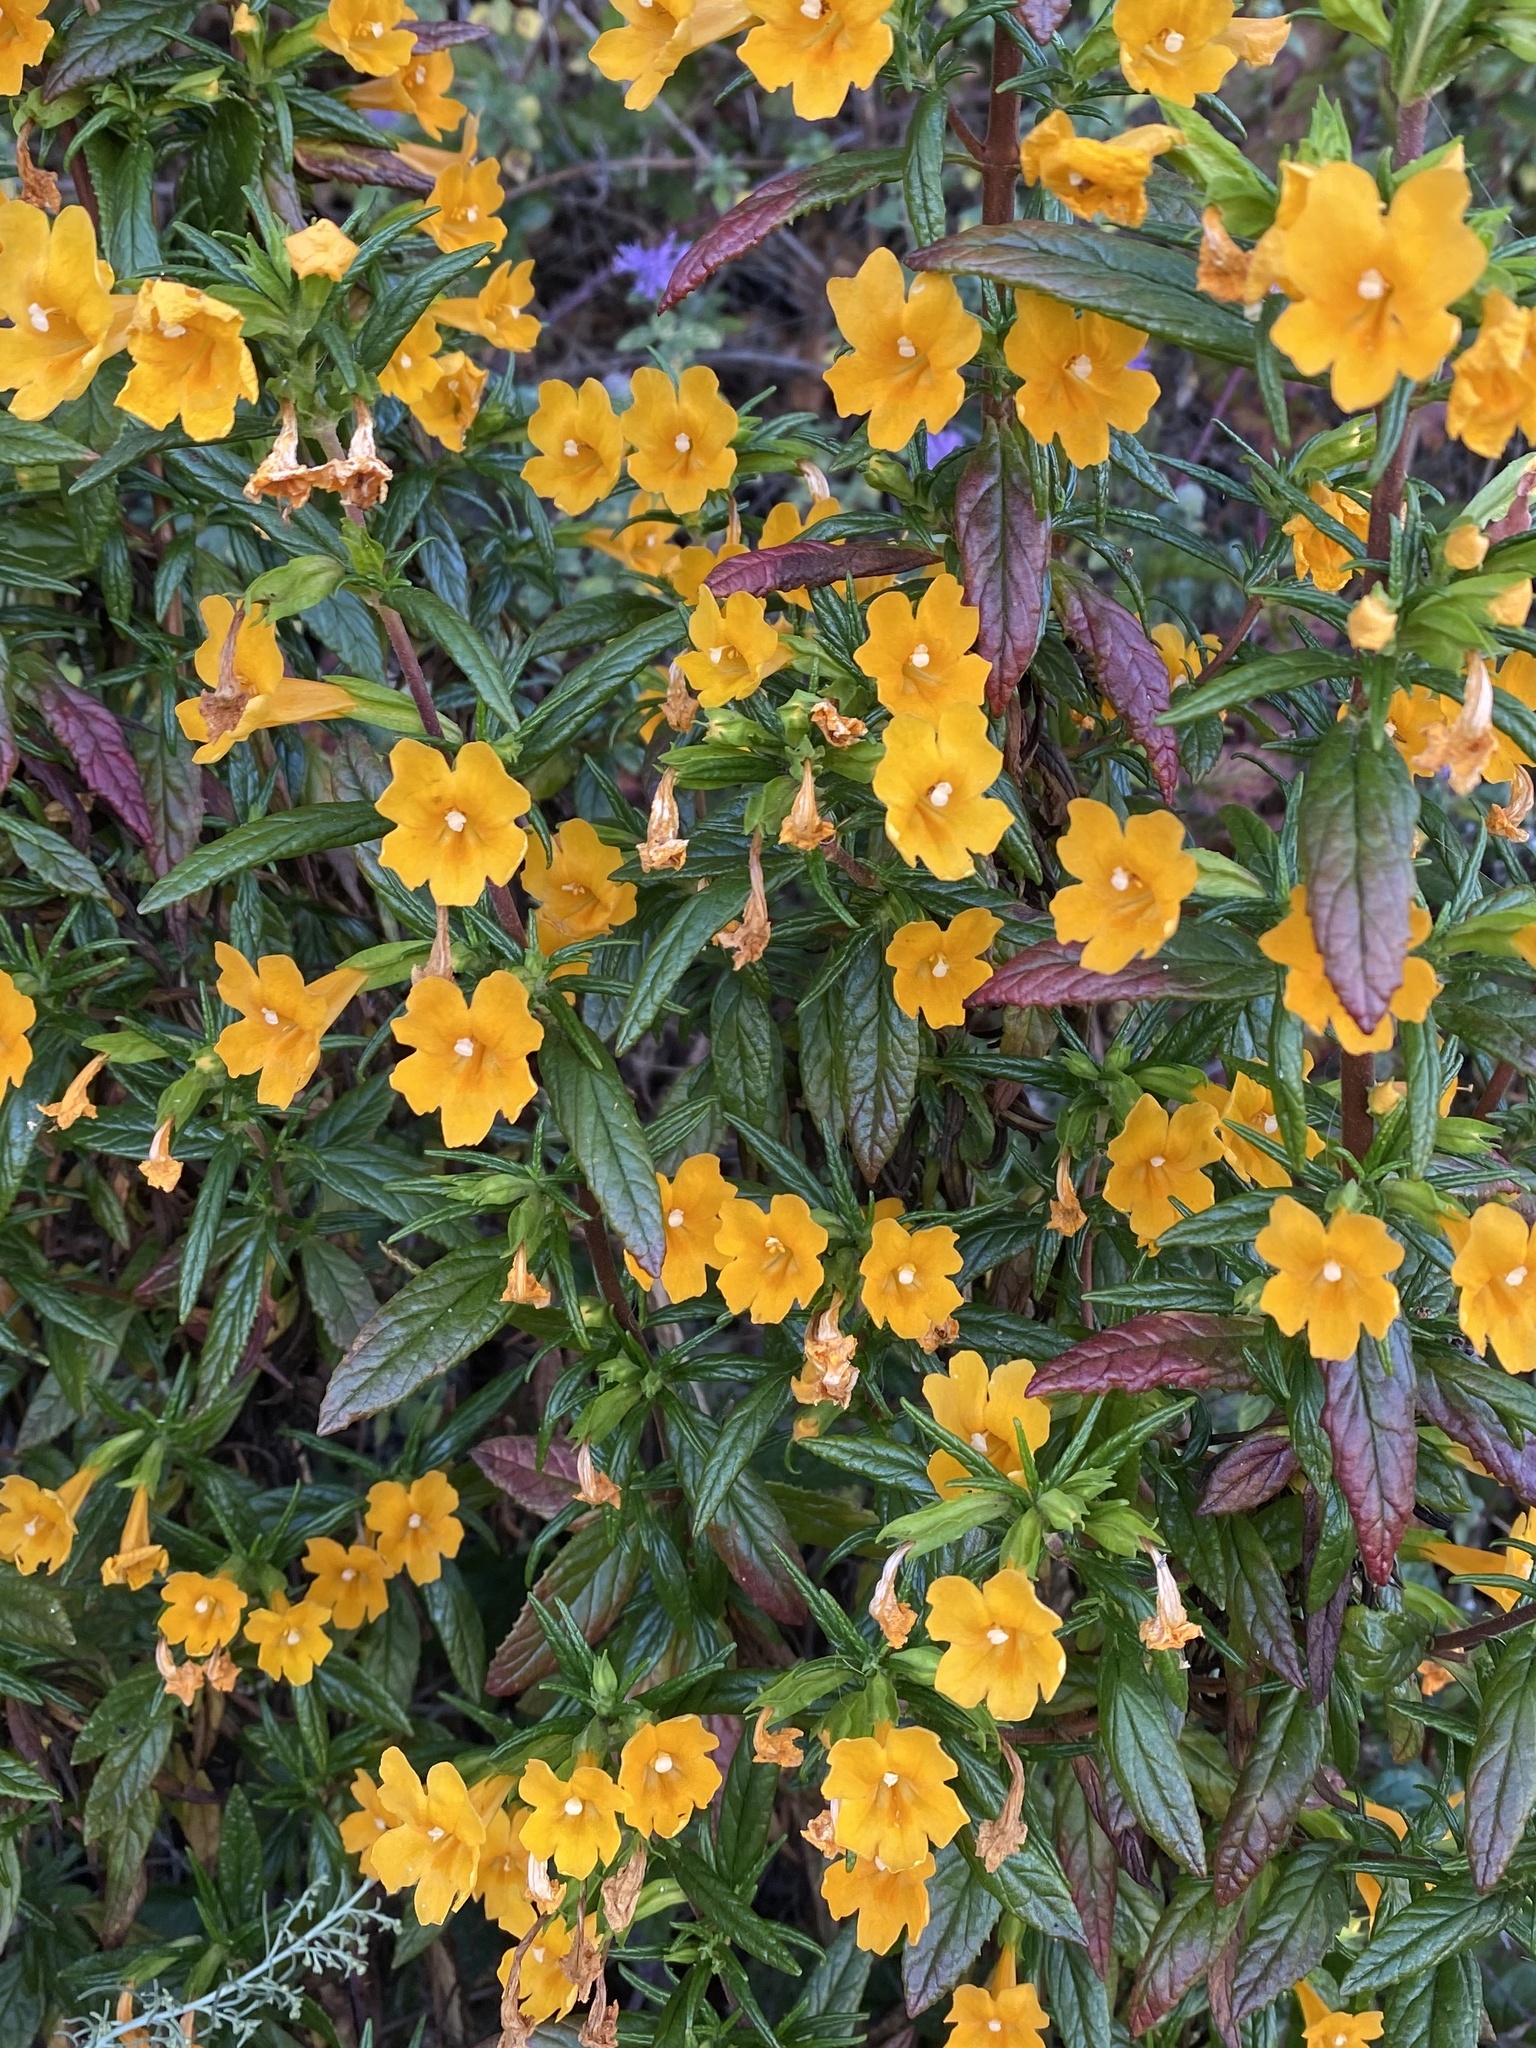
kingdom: Plantae
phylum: Tracheophyta
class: Magnoliopsida
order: Lamiales
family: Phrymaceae
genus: Diplacus
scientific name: Diplacus aurantiacus
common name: Bush monkey-flower
